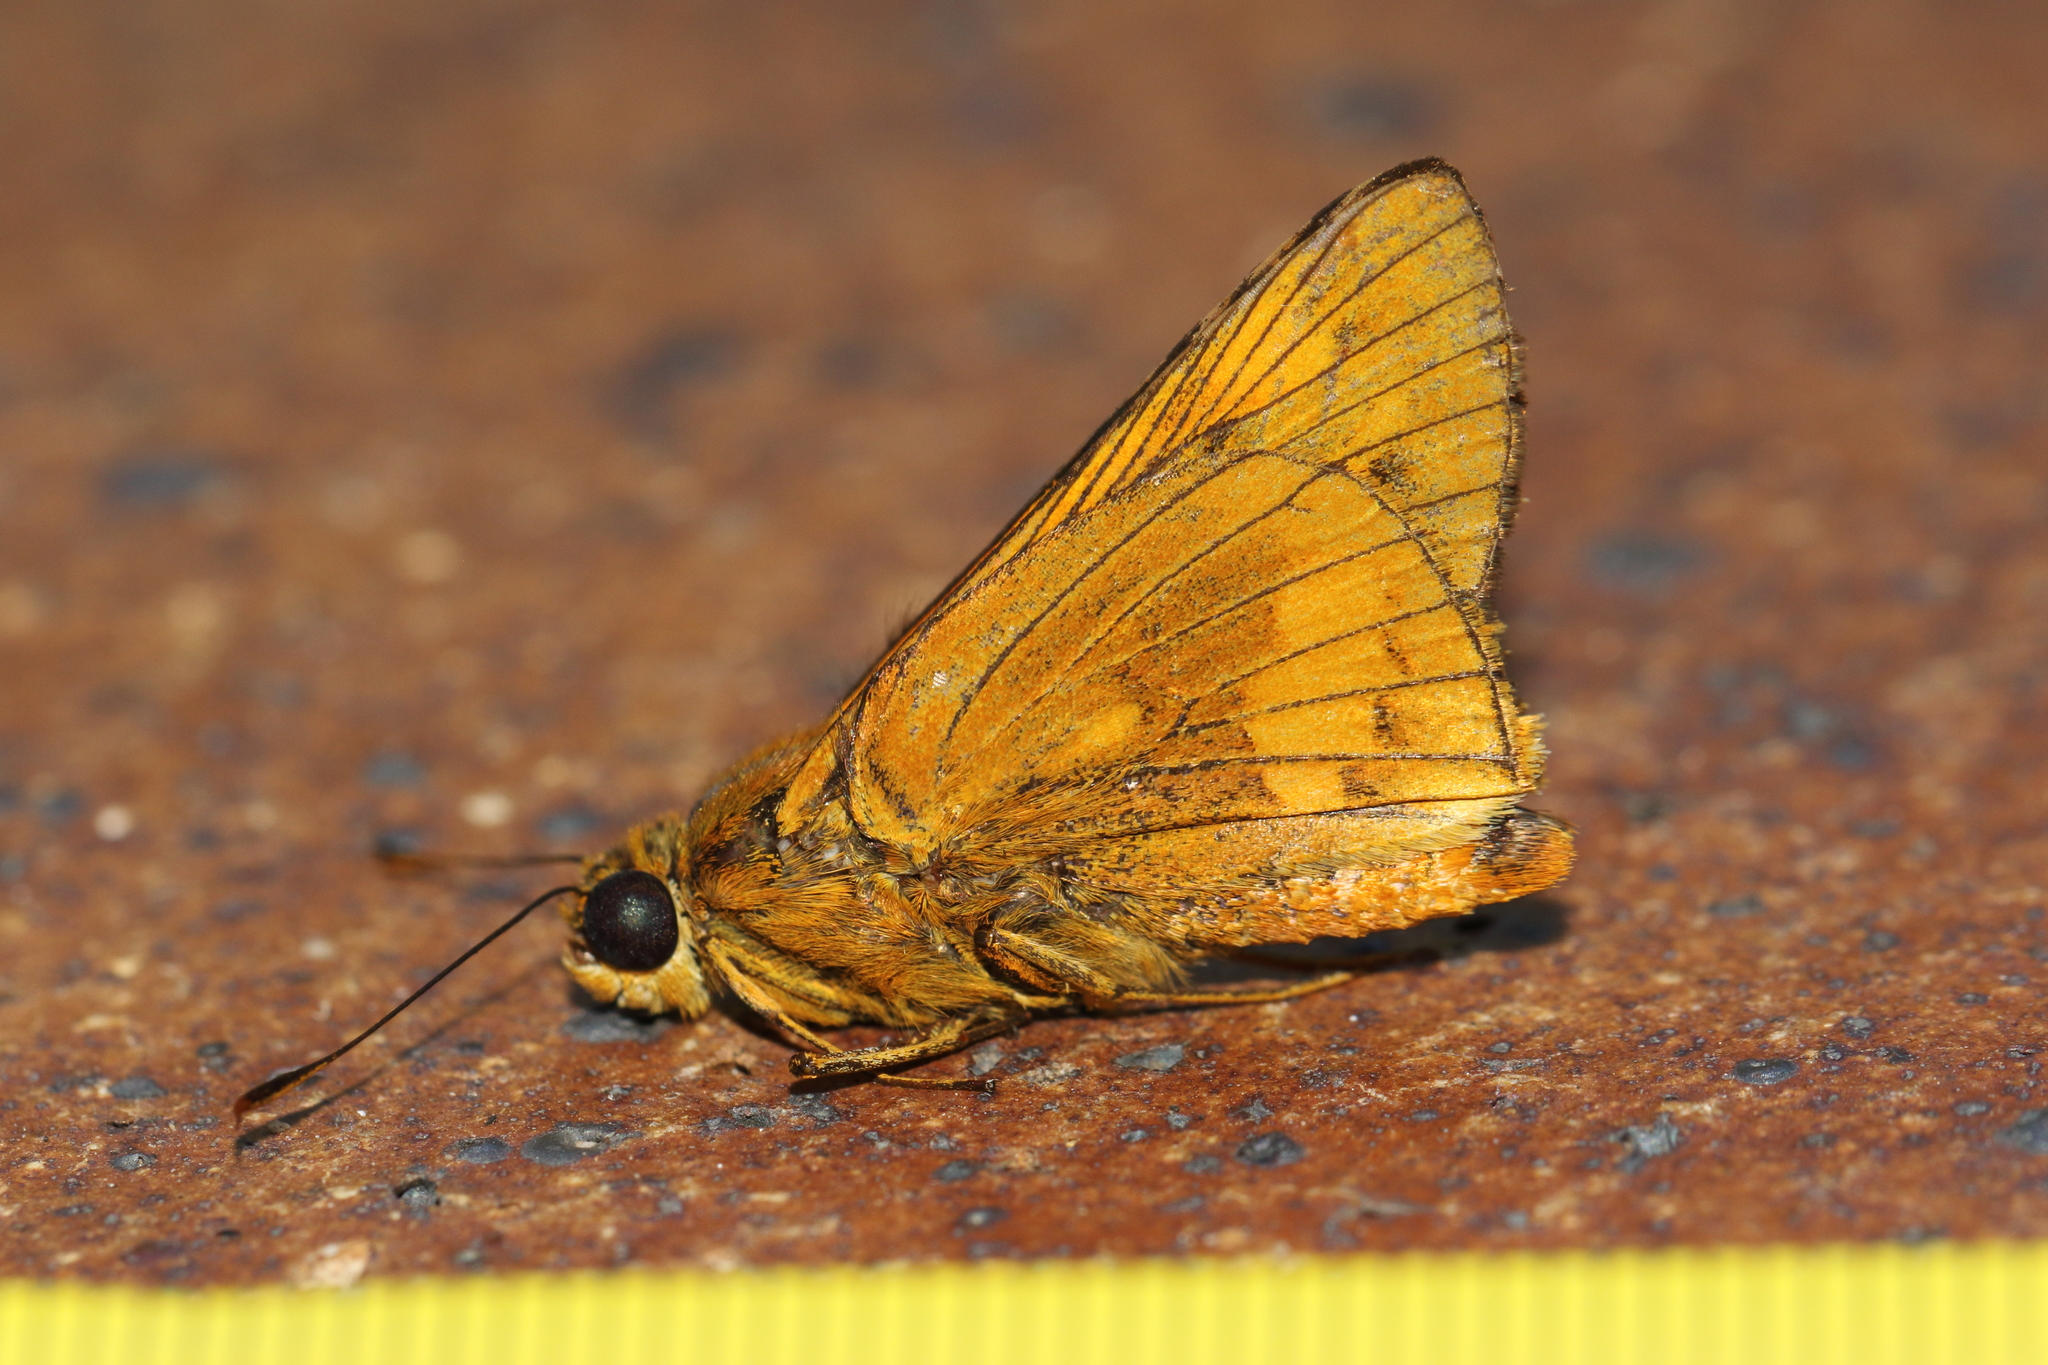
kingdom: Animalia
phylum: Arthropoda
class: Insecta
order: Lepidoptera
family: Hesperiidae
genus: Cephrenes
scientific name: Cephrenes augiades
